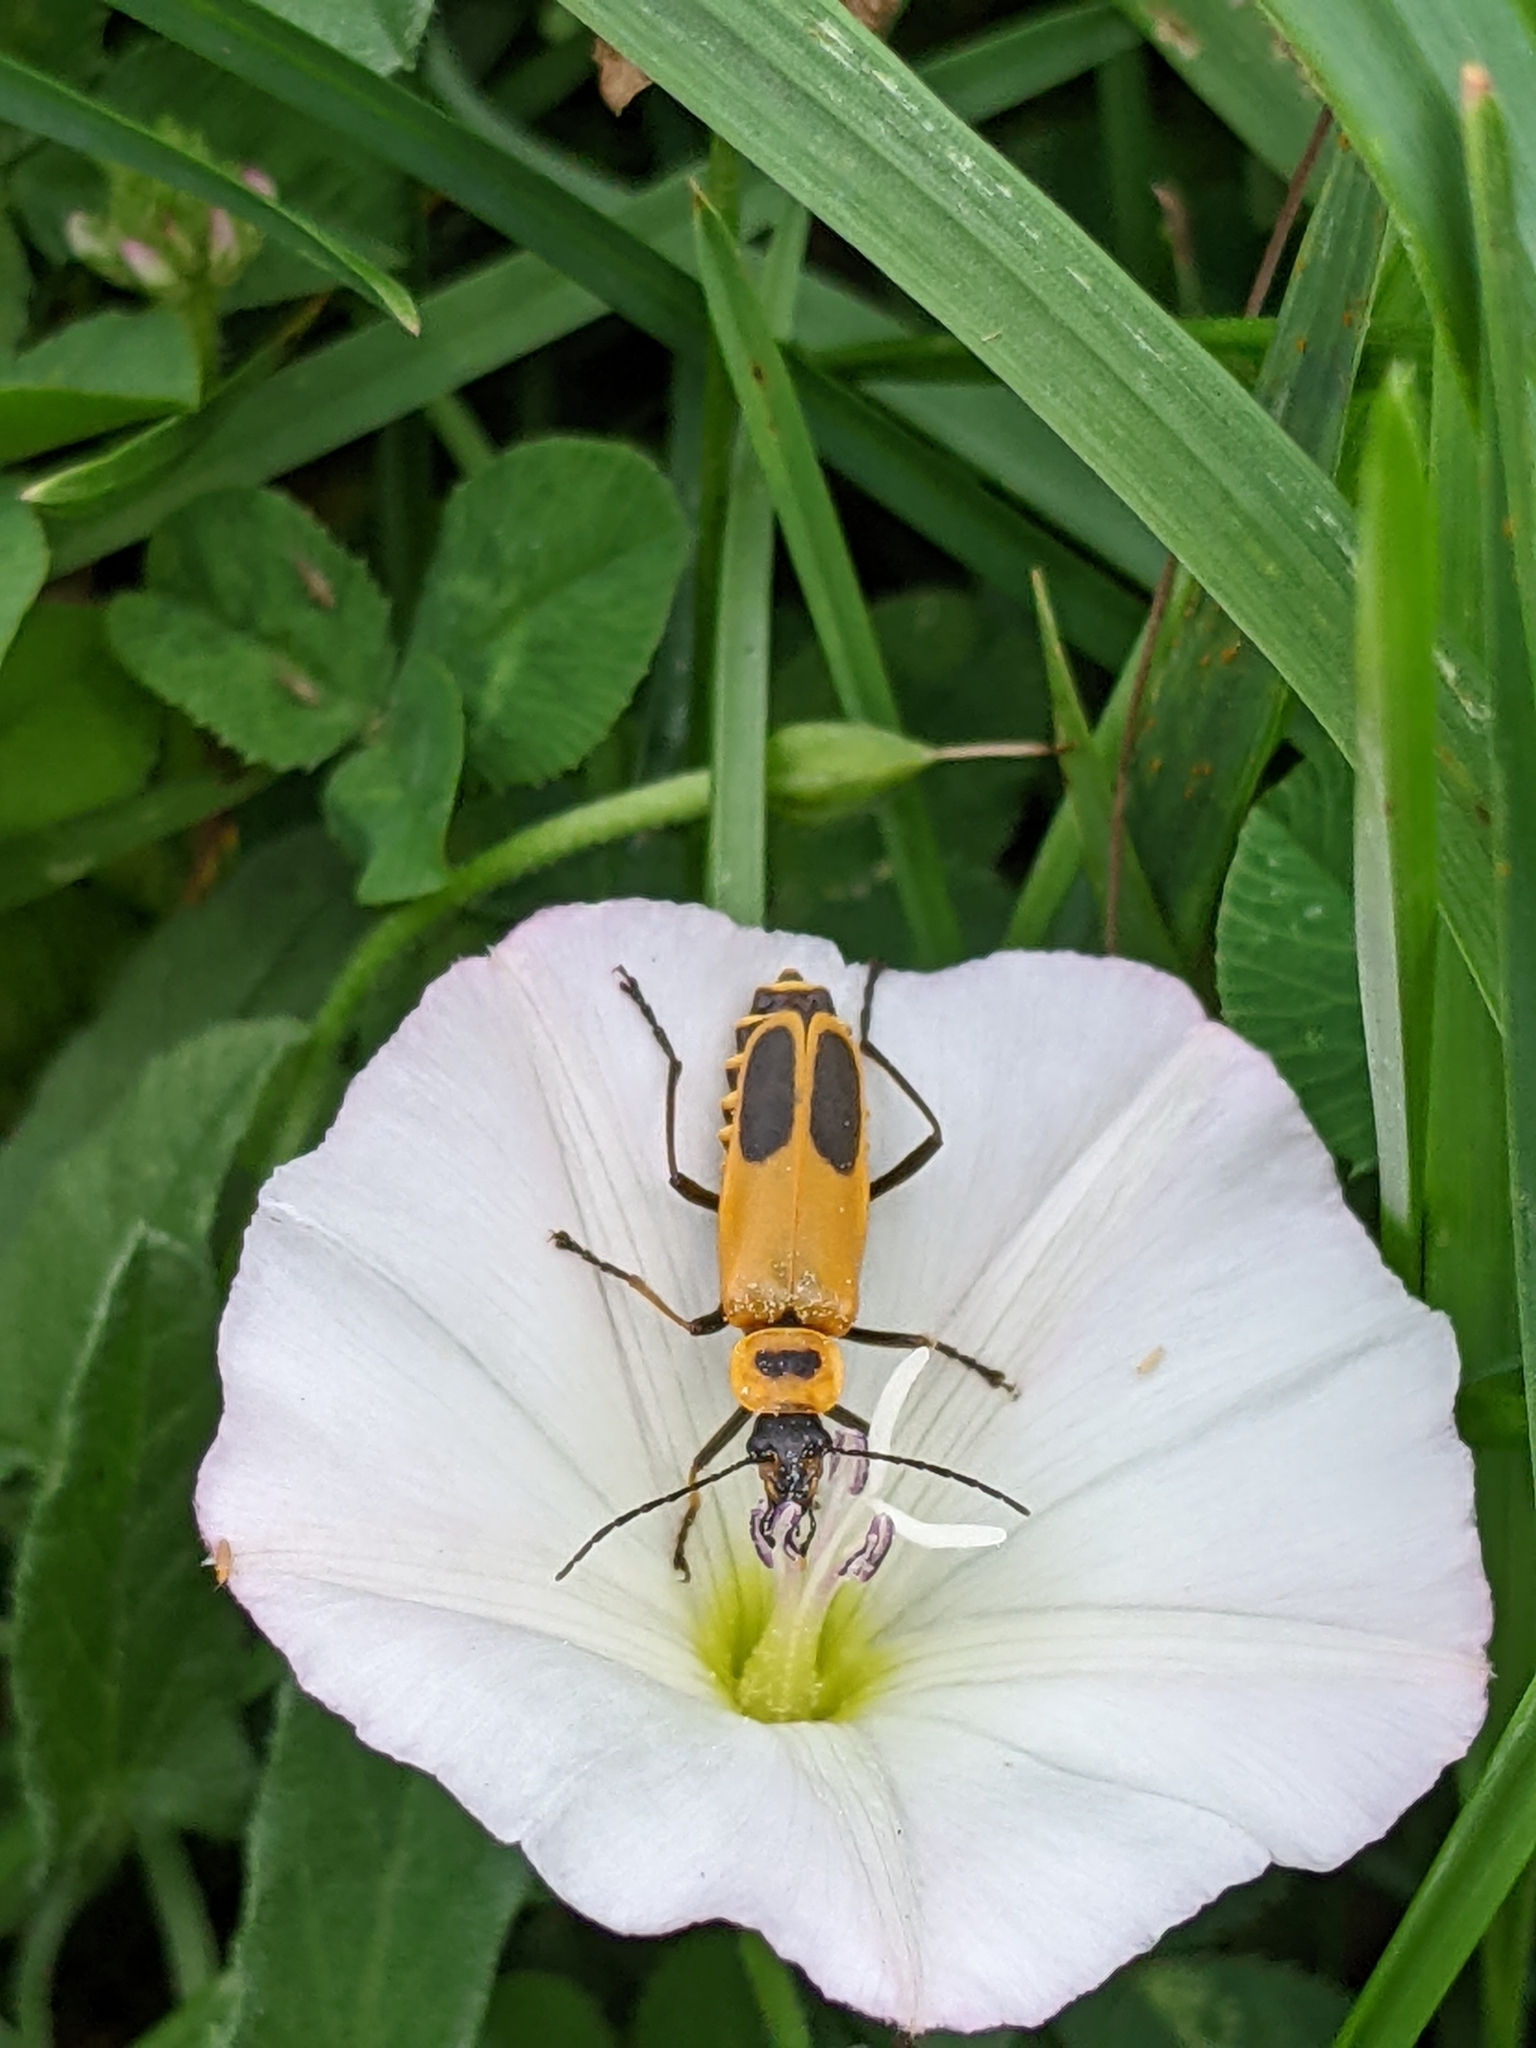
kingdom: Animalia
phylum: Arthropoda
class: Insecta
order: Coleoptera
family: Cantharidae
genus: Chauliognathus
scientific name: Chauliognathus pensylvanicus
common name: Goldenrod soldier beetle
